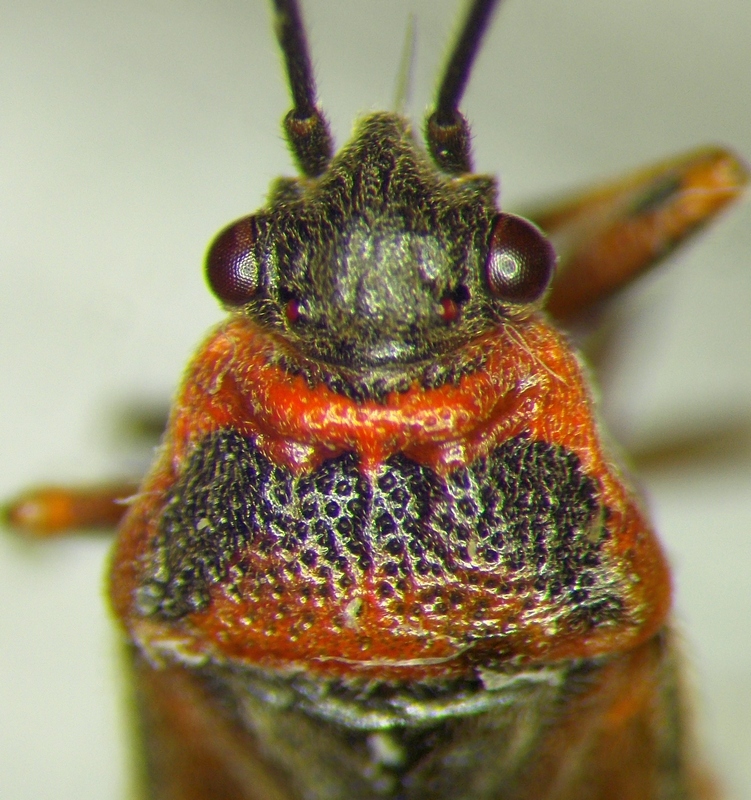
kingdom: Animalia
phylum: Arthropoda
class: Insecta
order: Hemiptera
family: Lygaeidae
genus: Arocatus
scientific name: Arocatus melanocephalus
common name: Lygaeid bug
